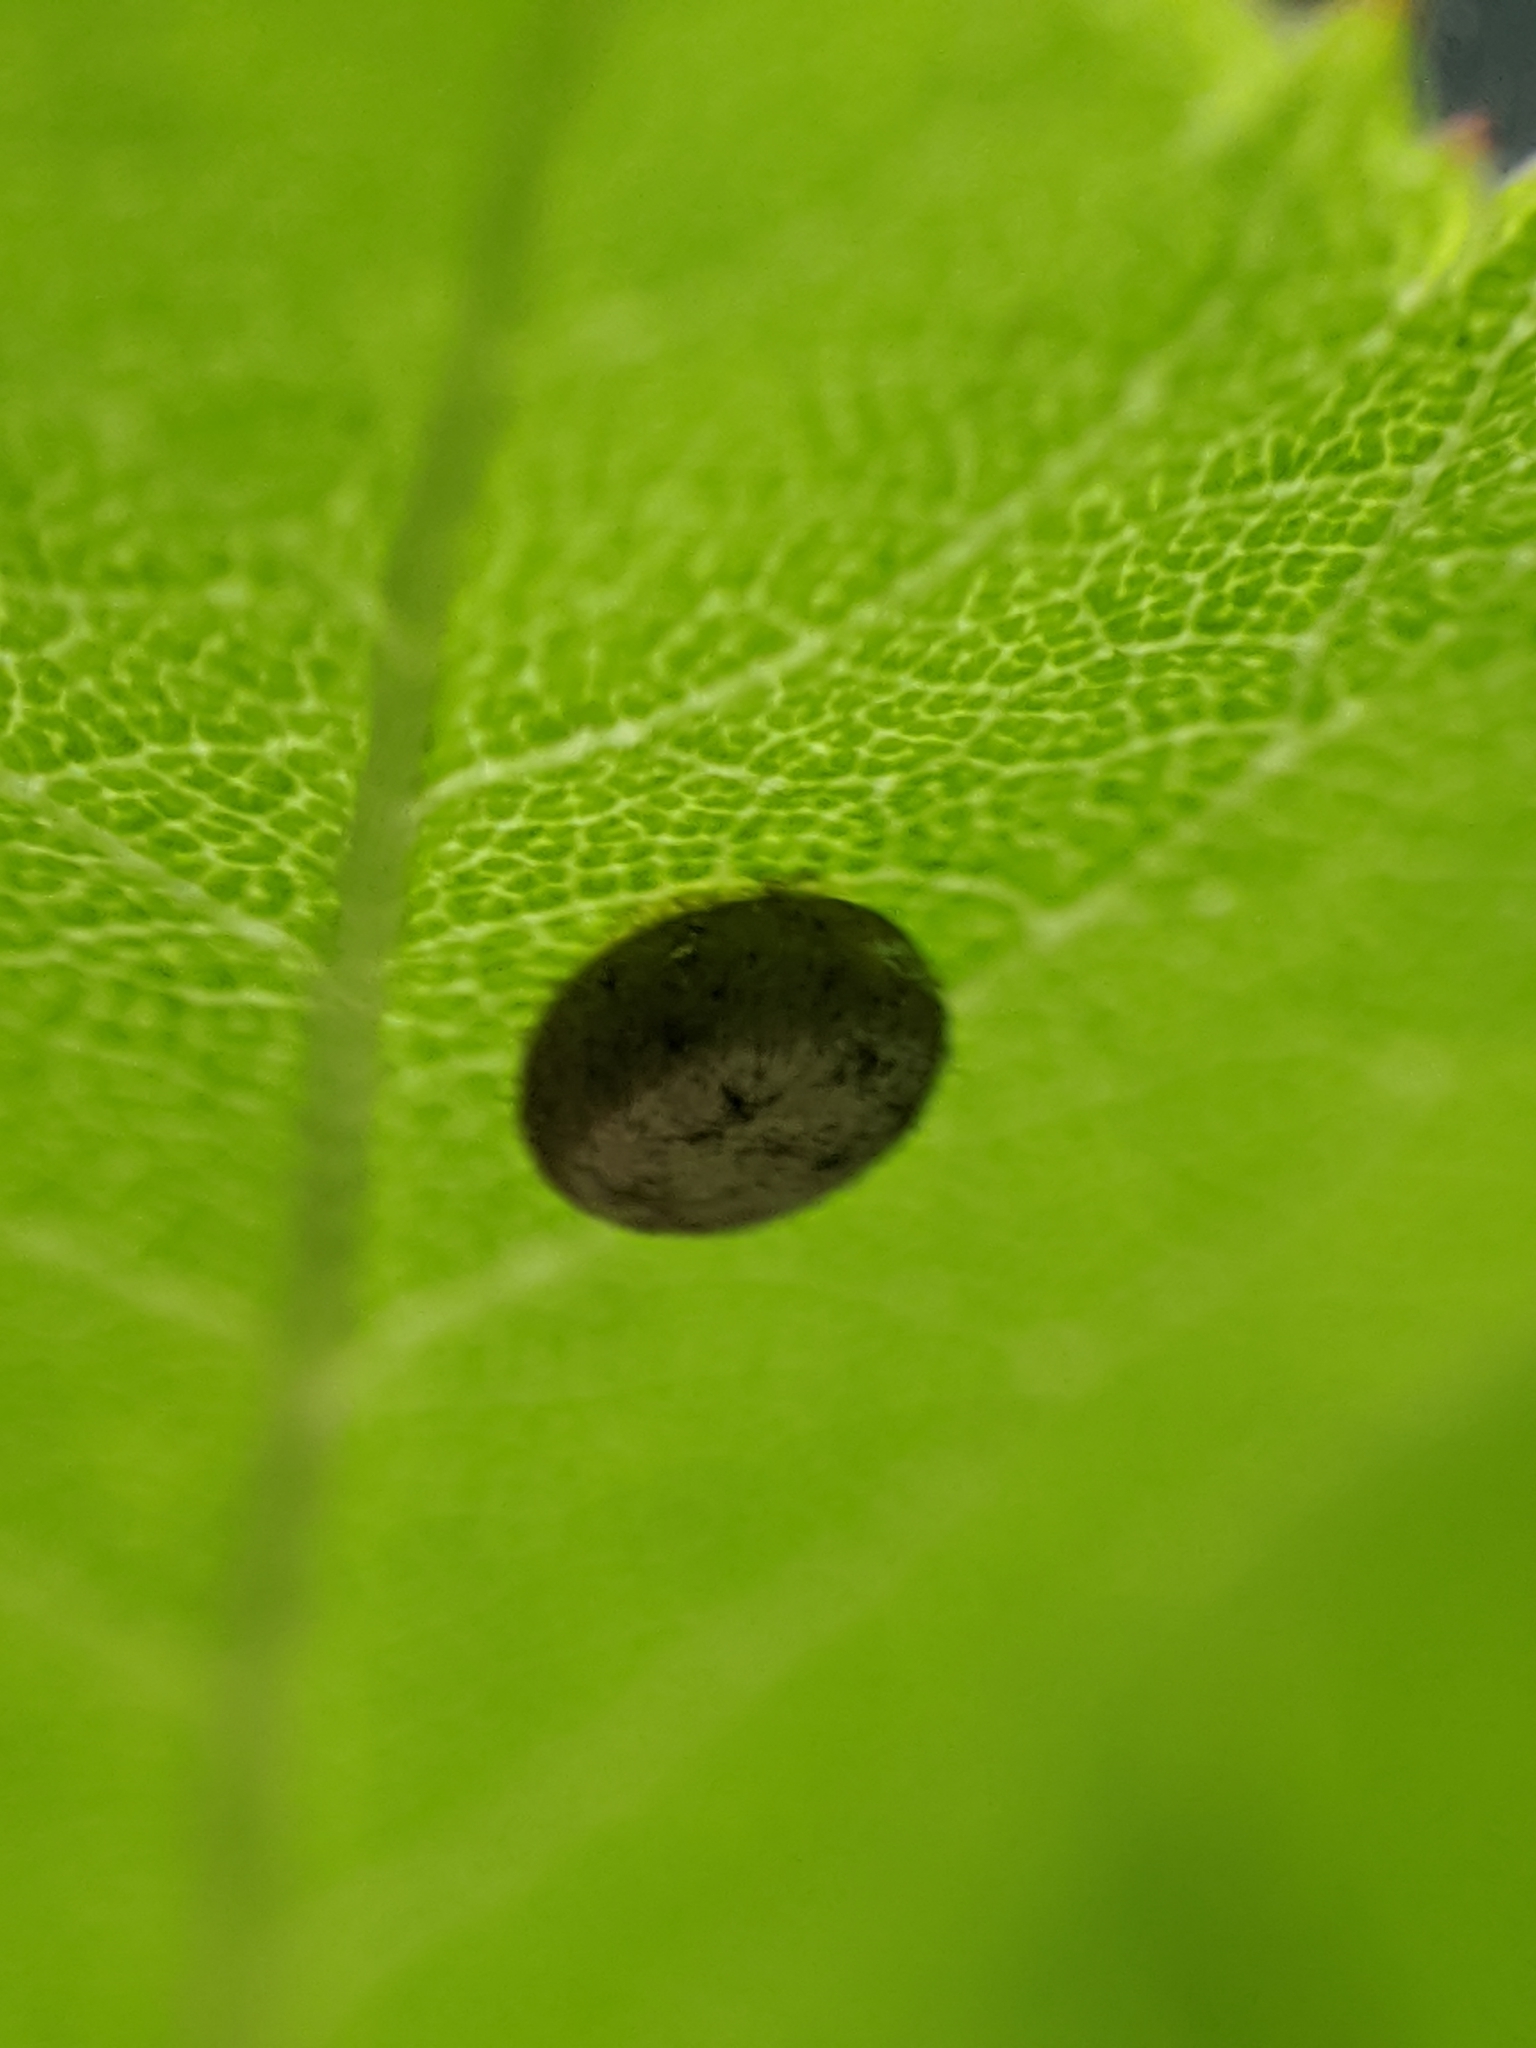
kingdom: Animalia
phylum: Arthropoda
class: Insecta
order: Lepidoptera
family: Saturniidae
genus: Antheraea
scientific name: Antheraea polyphemus
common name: Polyphemus moth
